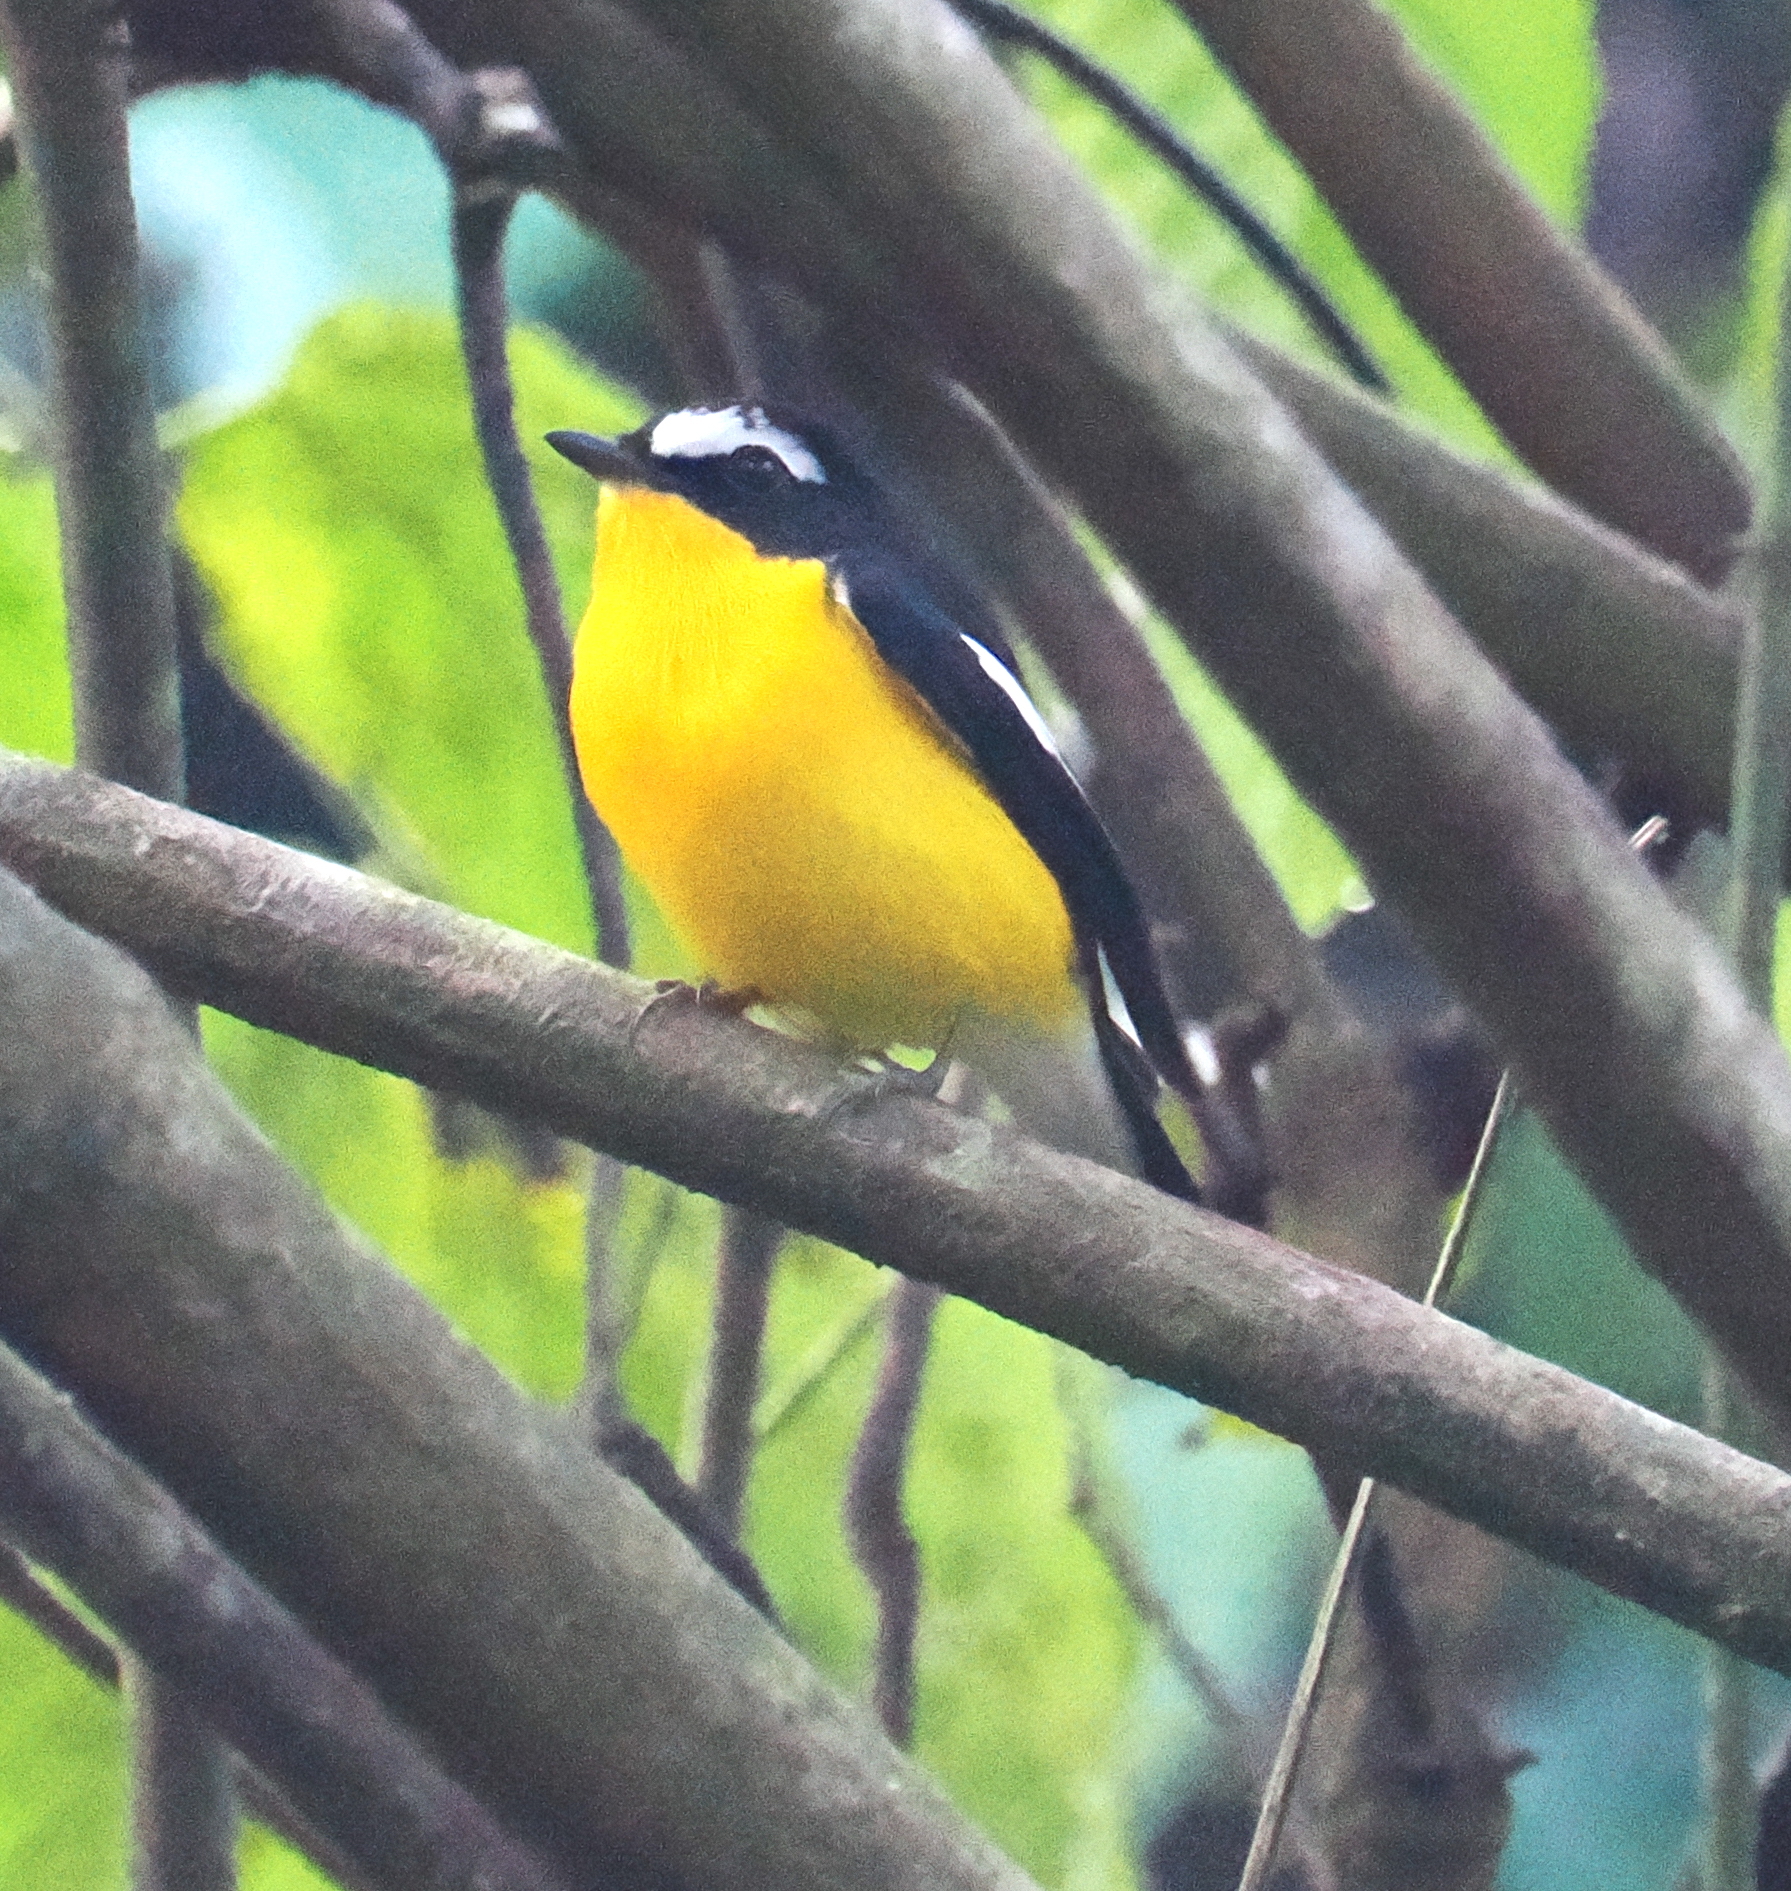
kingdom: Animalia
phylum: Chordata
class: Aves
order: Passeriformes
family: Muscicapidae
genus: Ficedula
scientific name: Ficedula zanthopygia
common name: Yellow-rumped flycatcher
